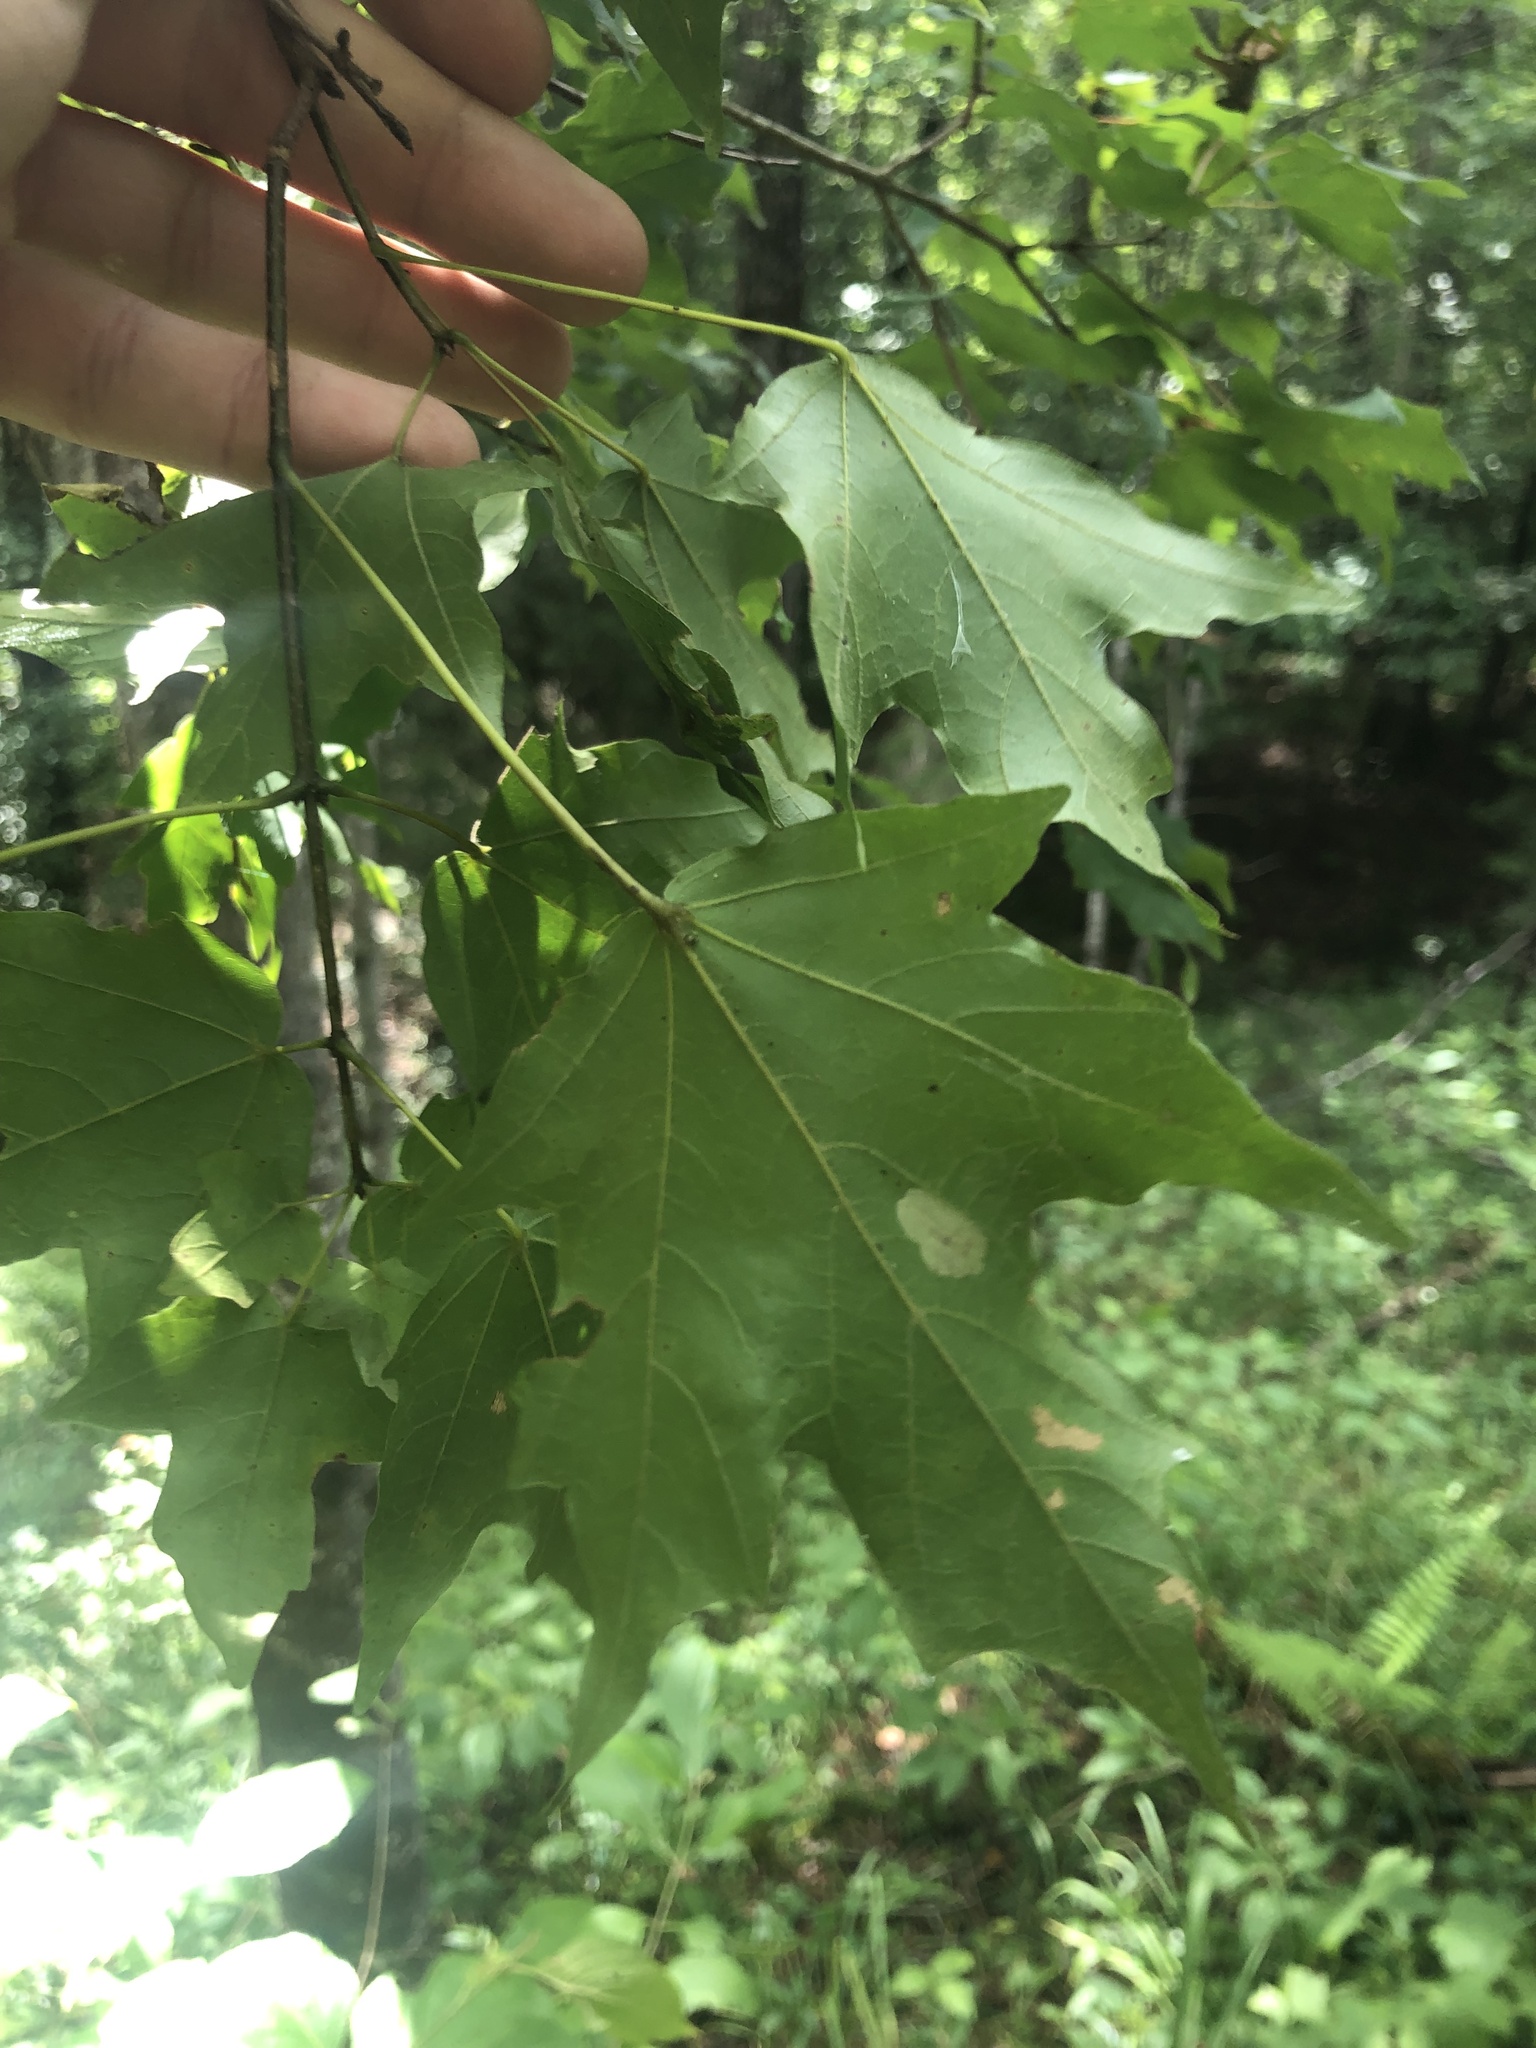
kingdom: Plantae
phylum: Tracheophyta
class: Magnoliopsida
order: Sapindales
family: Sapindaceae
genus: Acer
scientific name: Acer leucoderme
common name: Chalk maple
